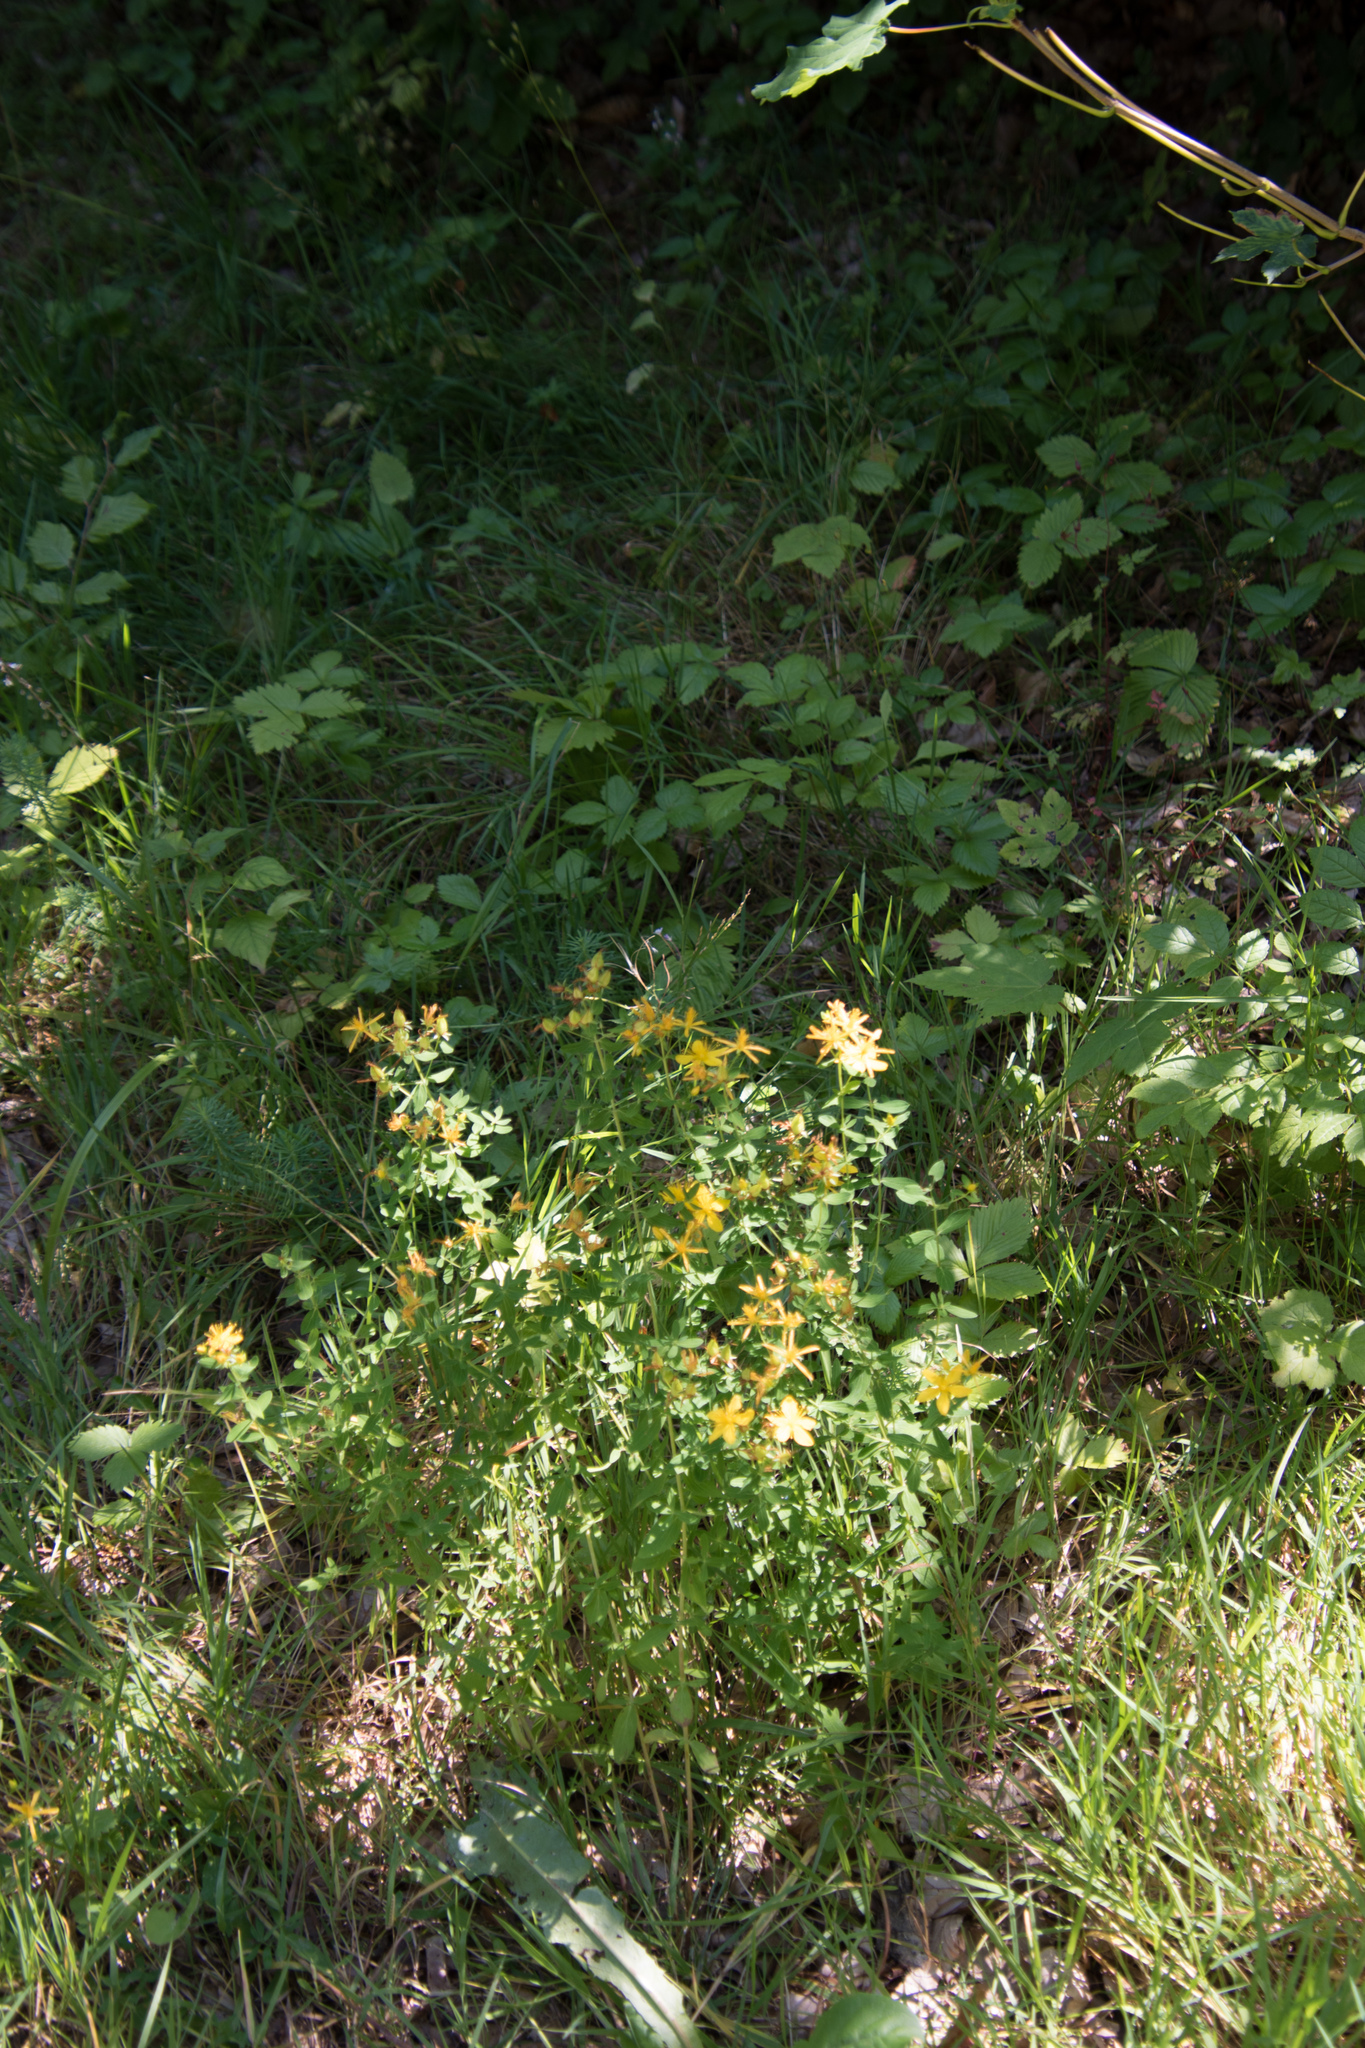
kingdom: Plantae
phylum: Tracheophyta
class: Magnoliopsida
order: Malpighiales
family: Hypericaceae
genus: Hypericum
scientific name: Hypericum perforatum
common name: Common st. johnswort
